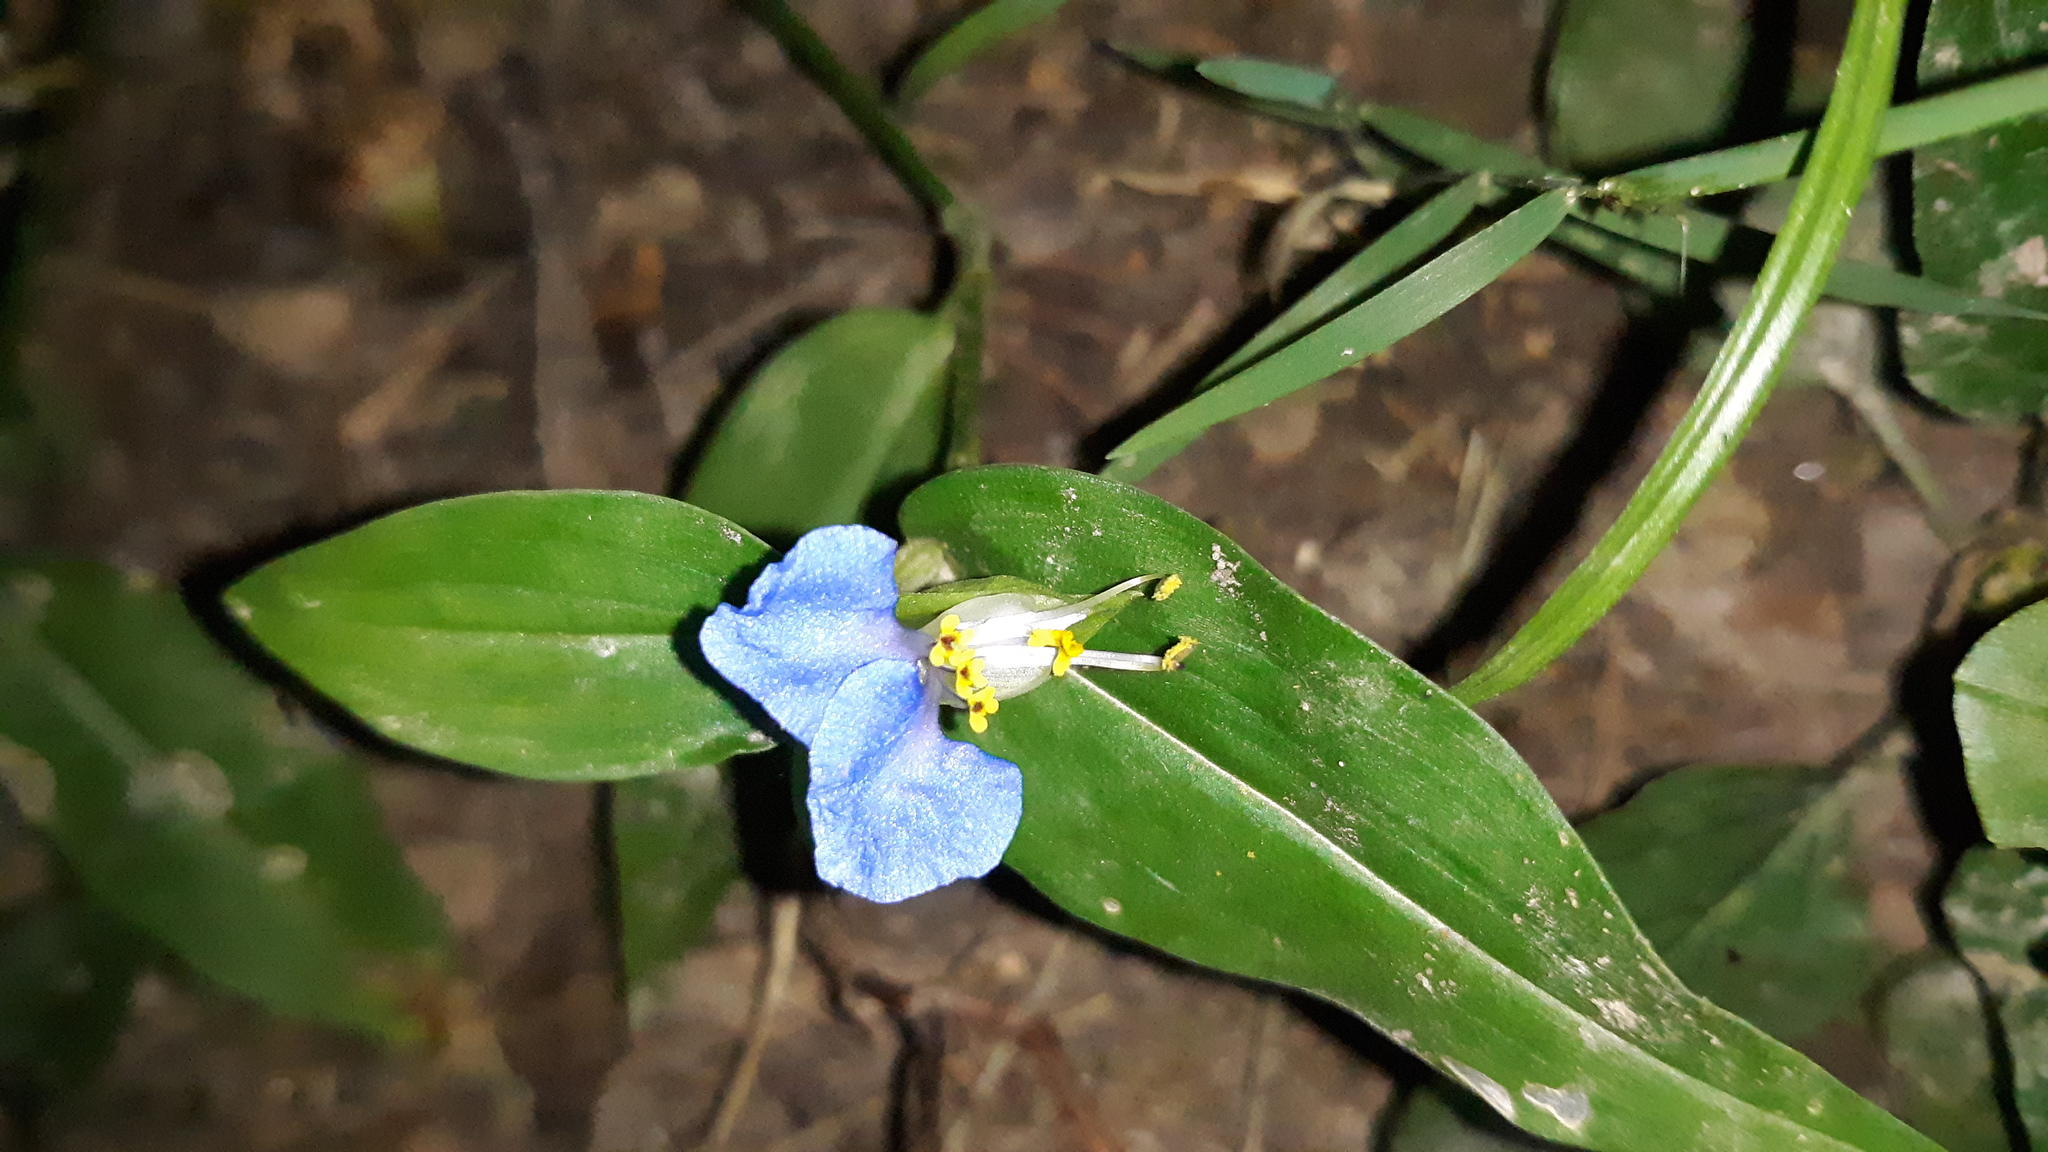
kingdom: Plantae
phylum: Tracheophyta
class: Liliopsida
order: Commelinales
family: Commelinaceae
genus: Commelina
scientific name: Commelina communis
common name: Asiatic dayflower
